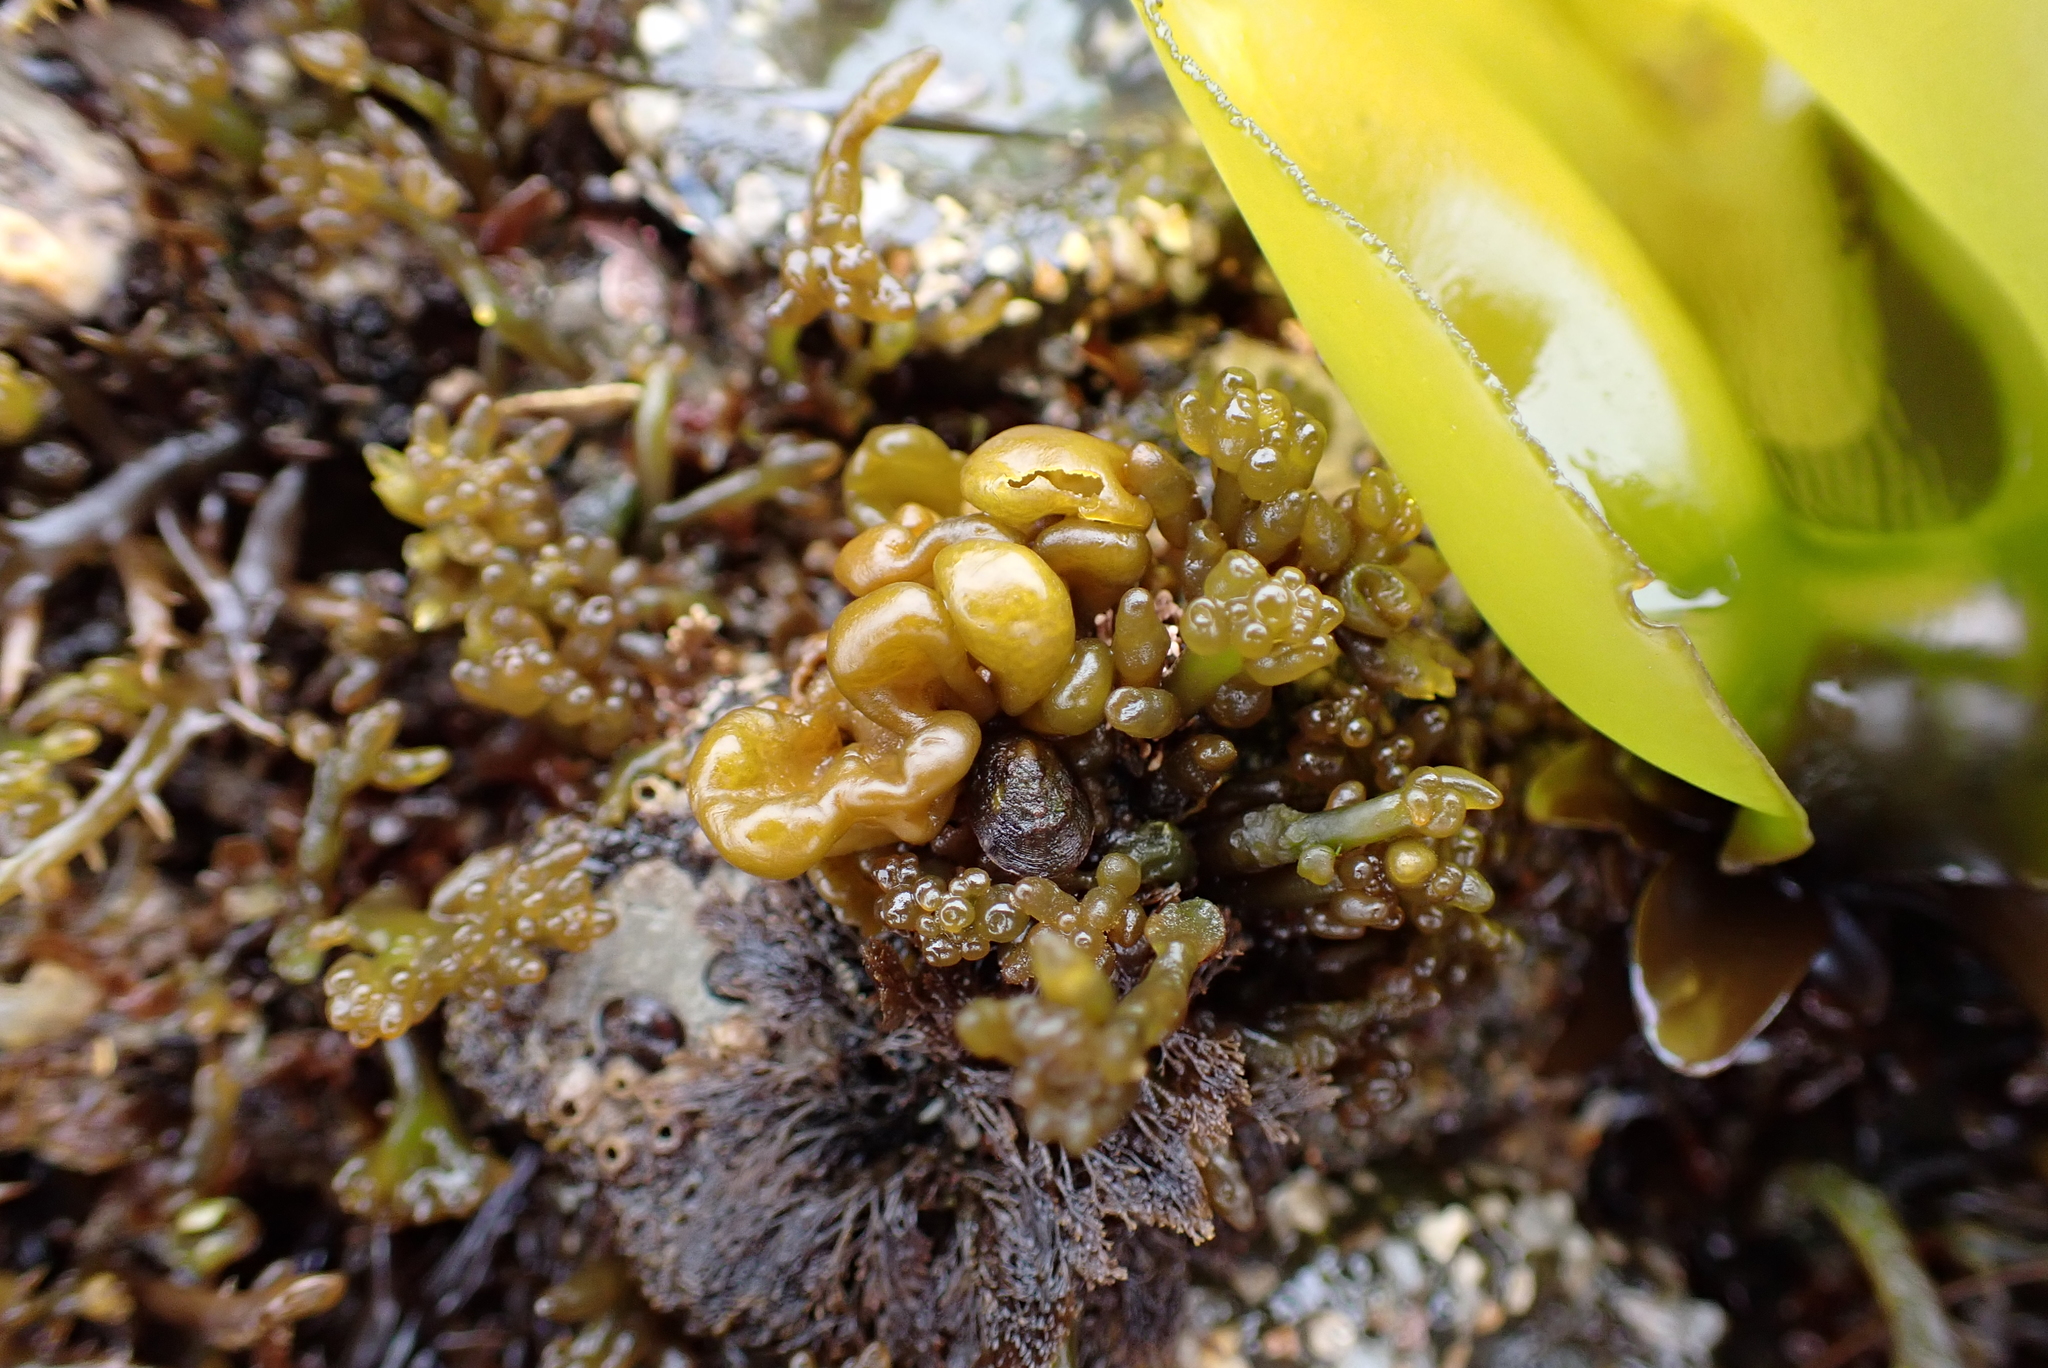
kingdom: Plantae
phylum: Rhodophyta
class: Florideophyceae
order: Palmariales
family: Palmariaceae
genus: Halosaccion
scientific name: Halosaccion glandiforme
